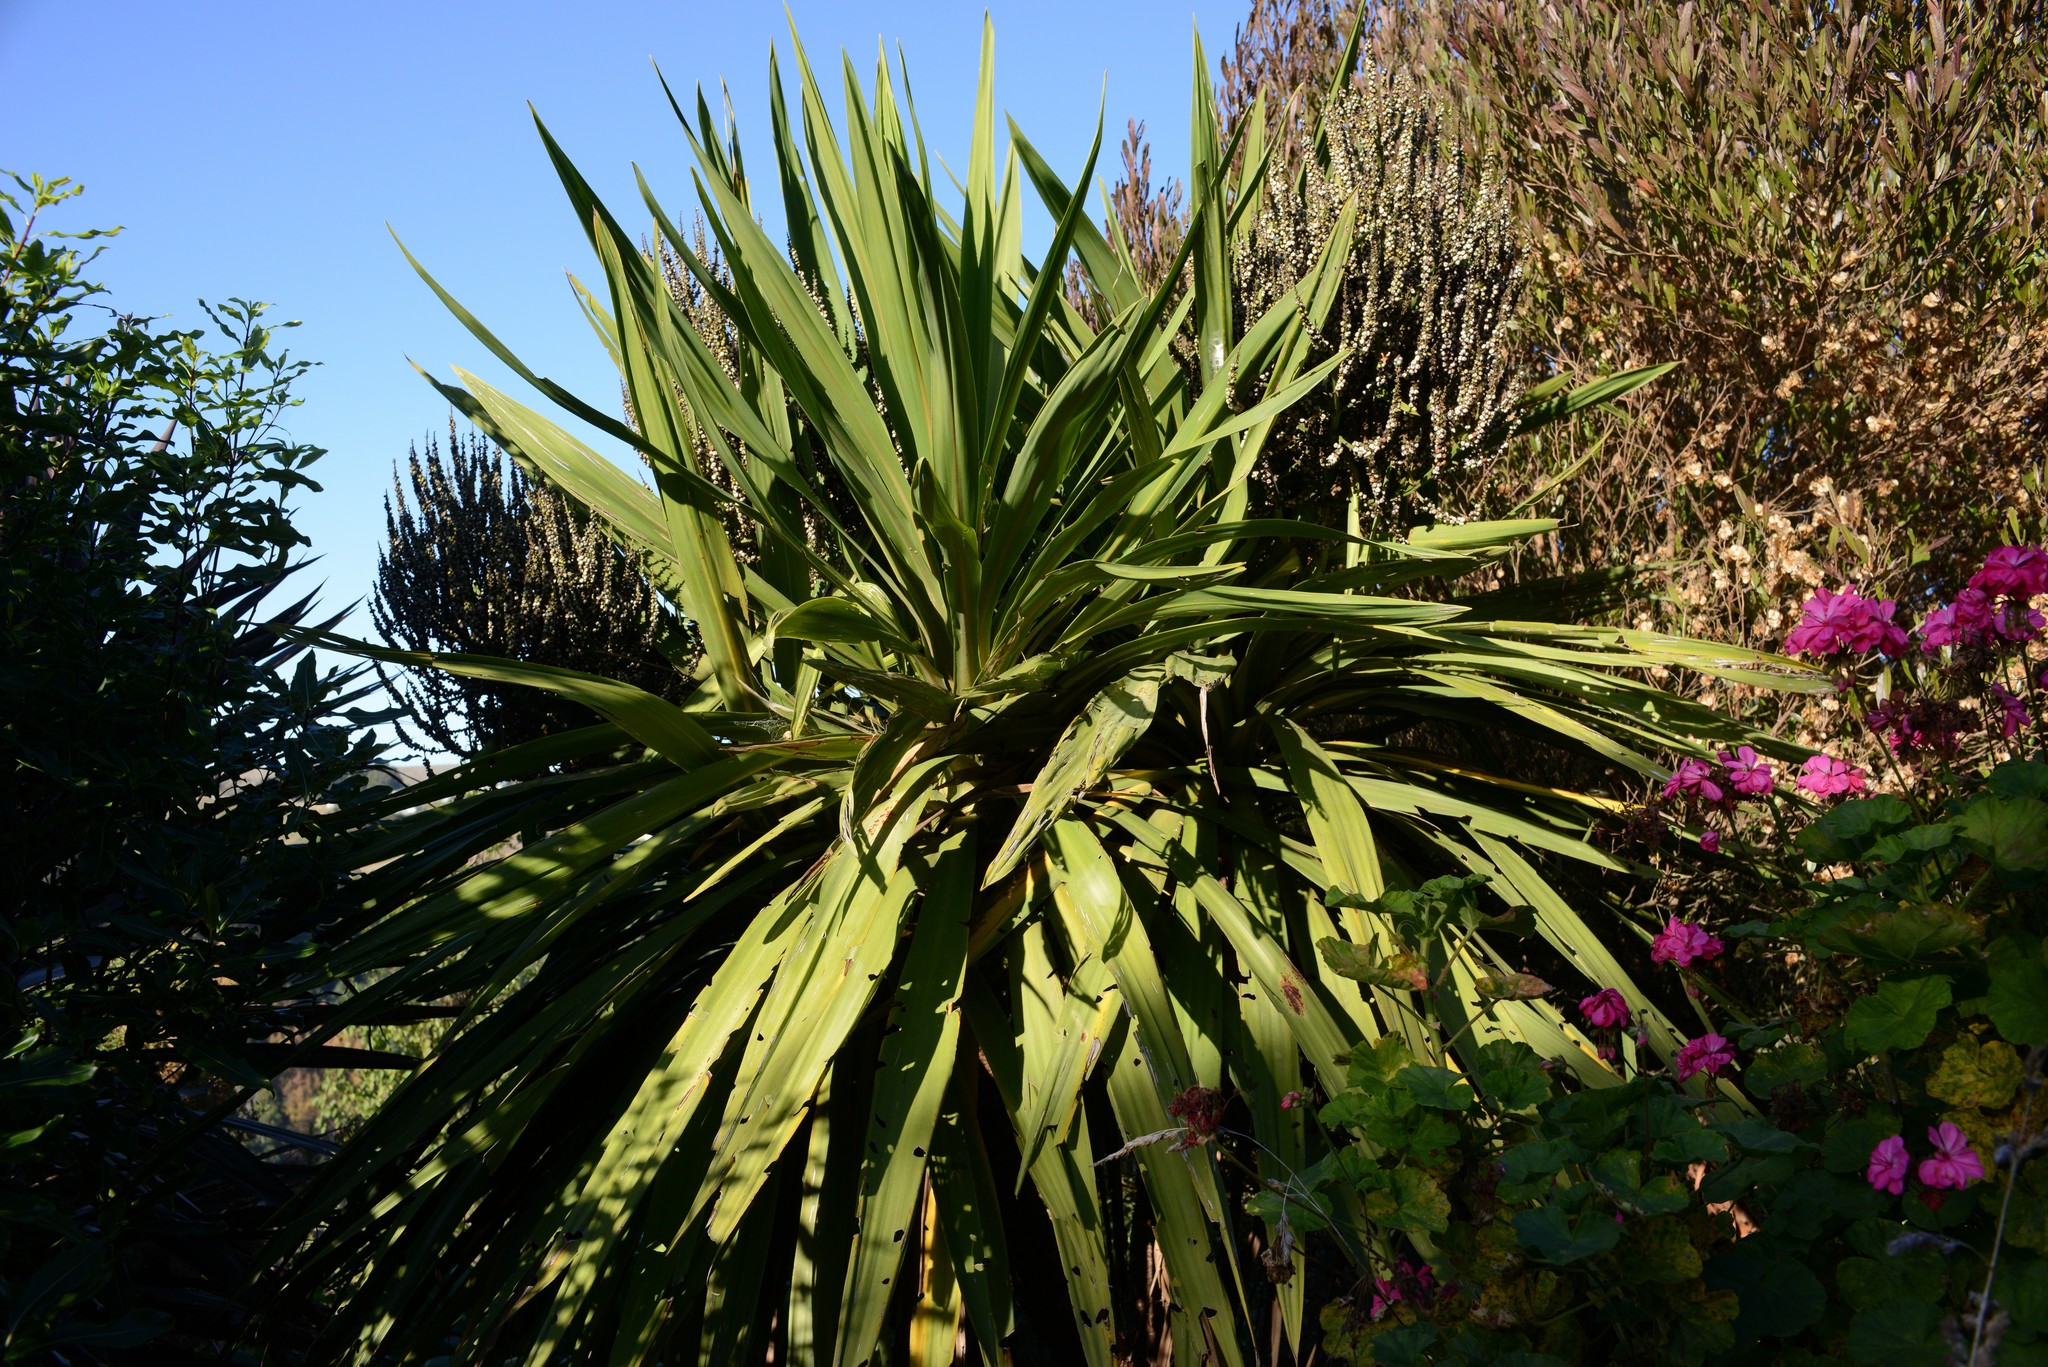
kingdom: Plantae
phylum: Tracheophyta
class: Liliopsida
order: Asparagales
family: Asparagaceae
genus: Cordyline
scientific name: Cordyline australis
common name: Cabbage-palm
